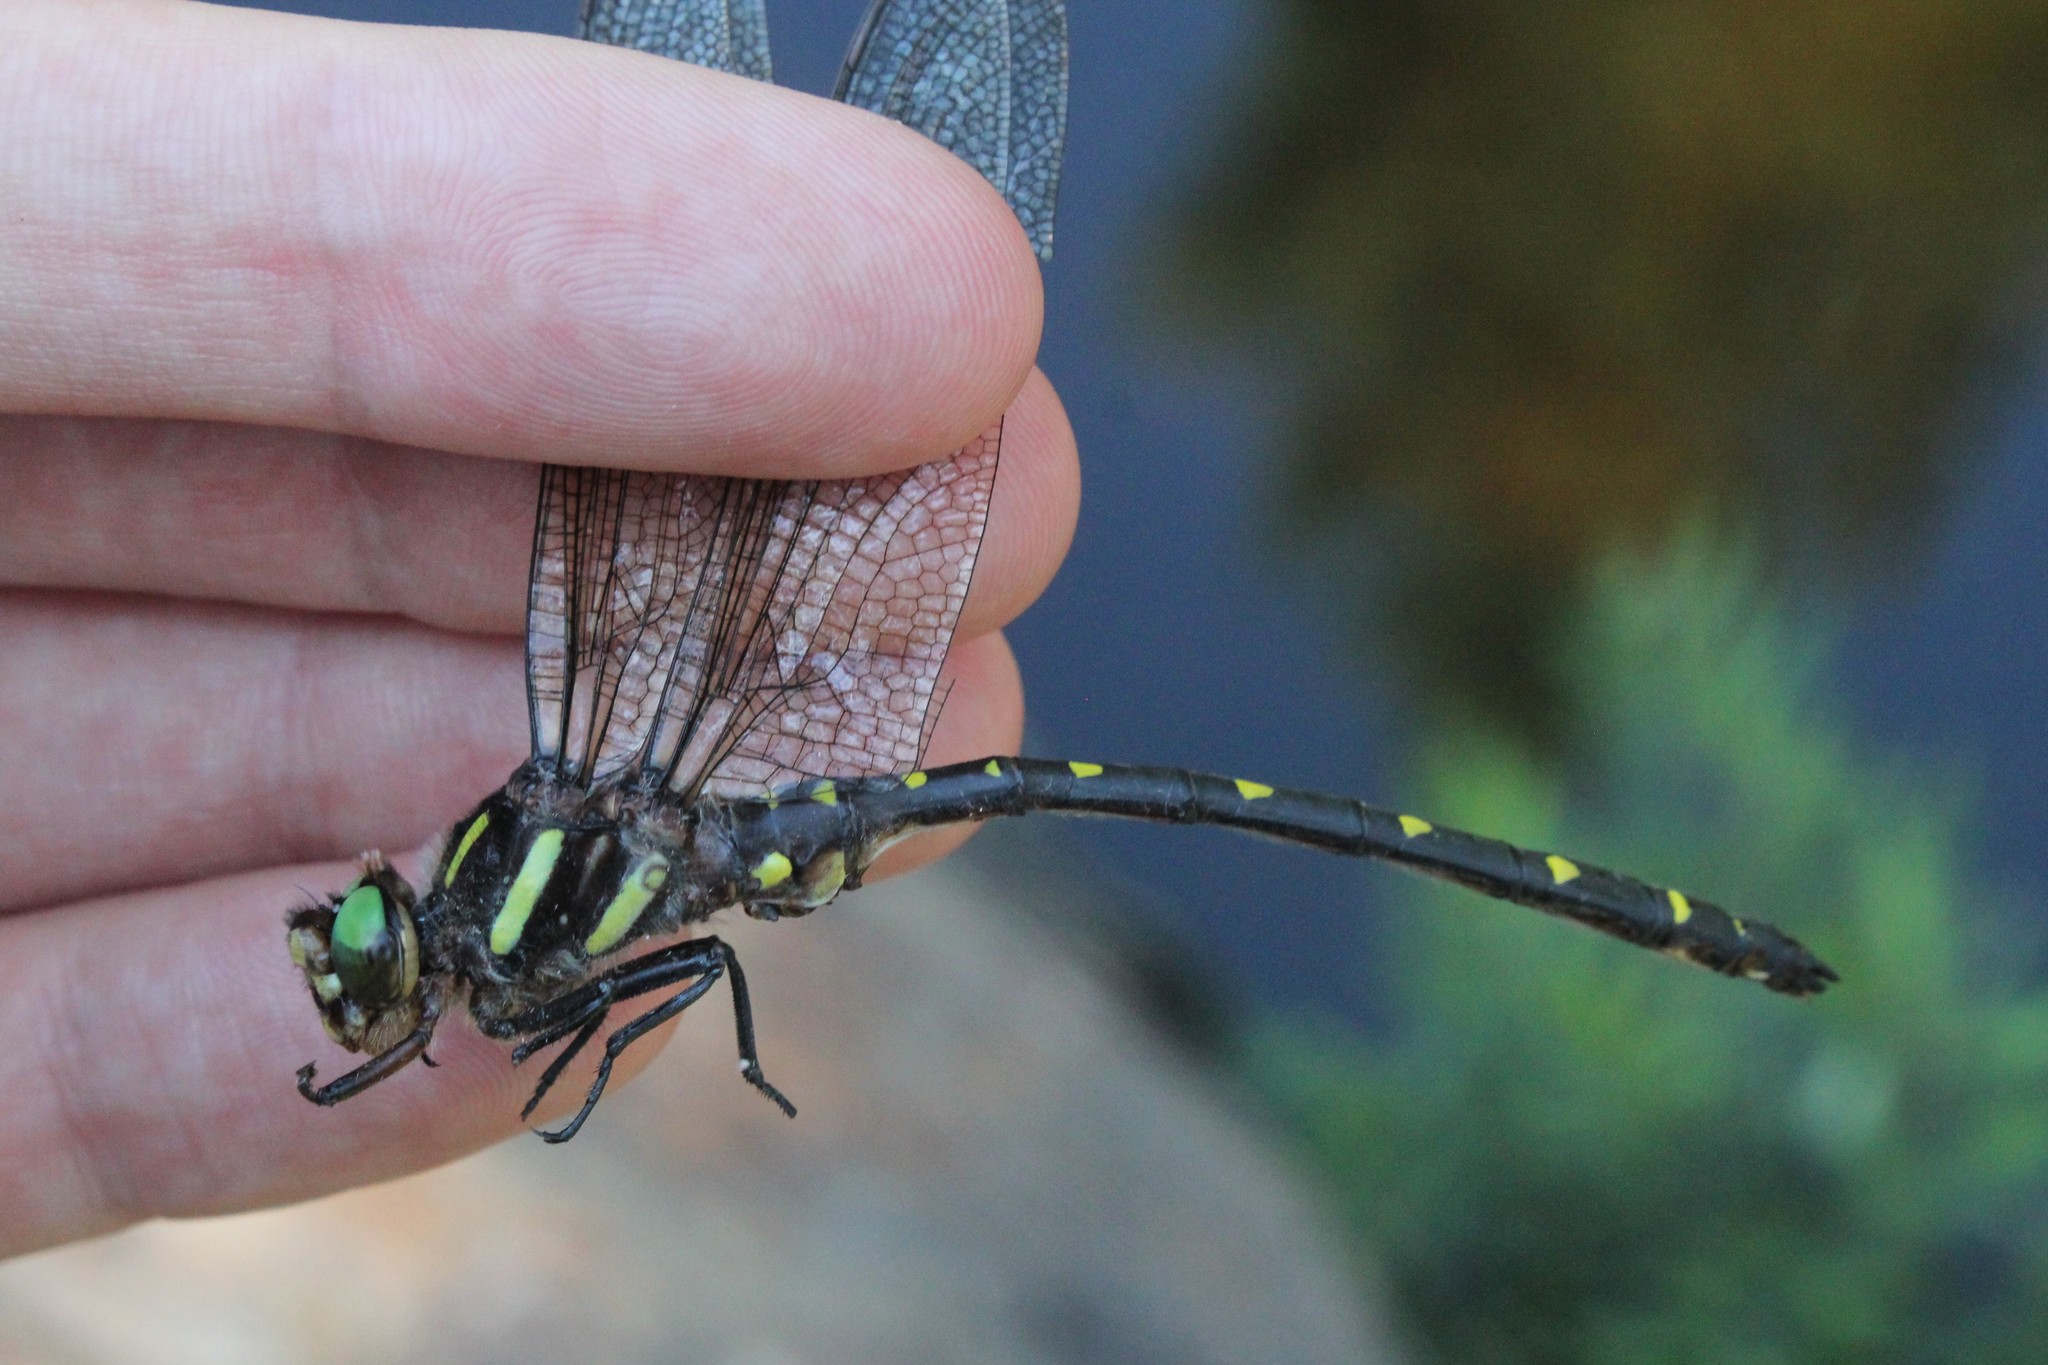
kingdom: Animalia
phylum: Arthropoda
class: Insecta
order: Odonata
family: Cordulegastridae
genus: Cordulegaster
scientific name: Cordulegaster maculata
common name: Twin-spotted spiketail
